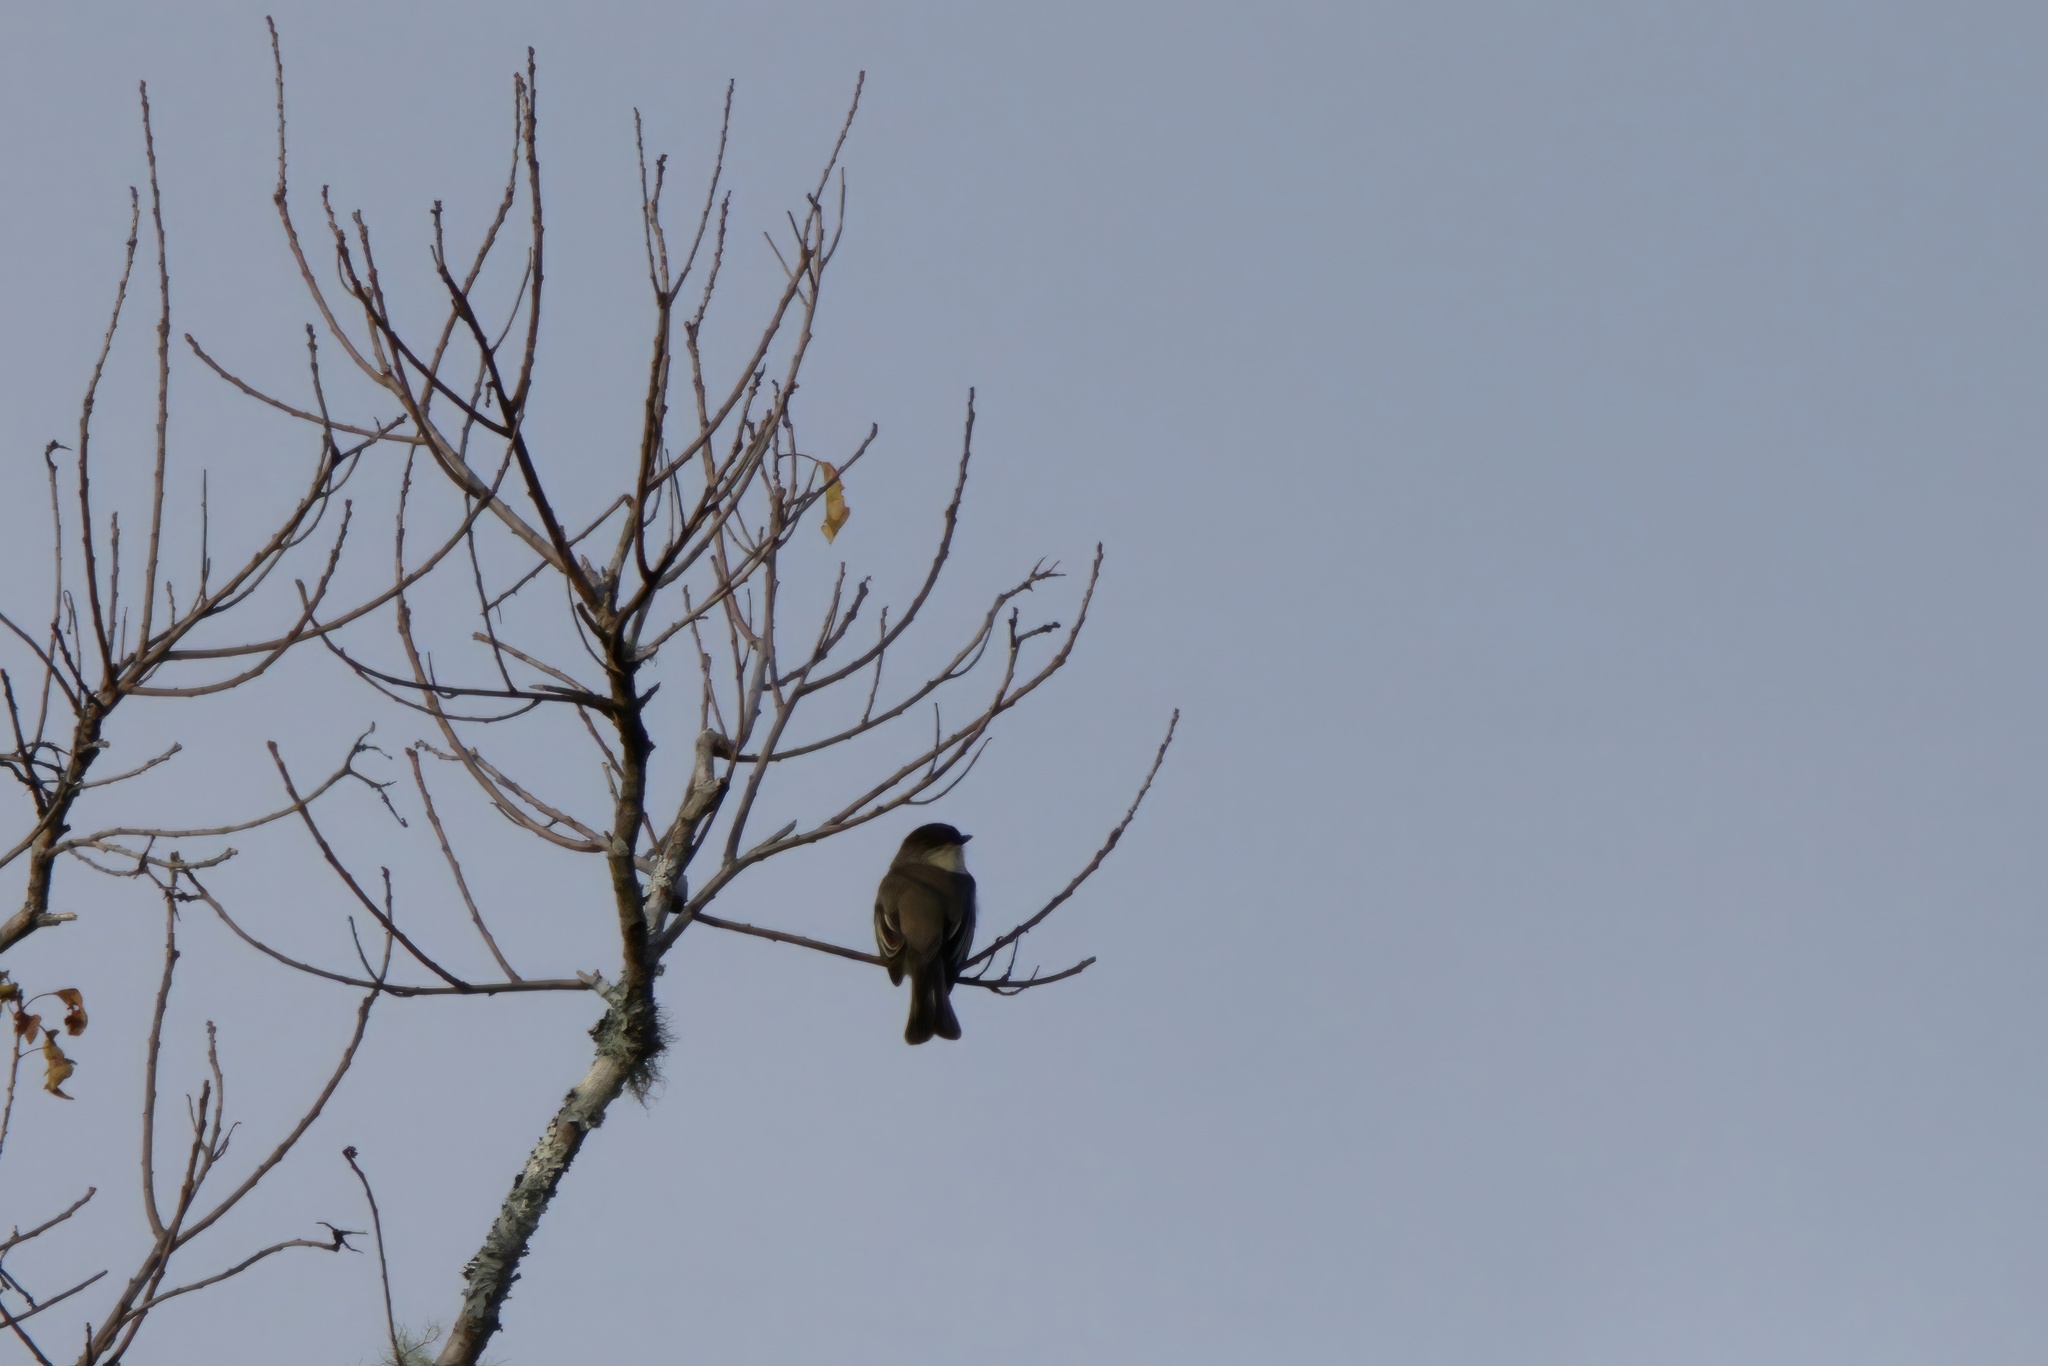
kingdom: Animalia
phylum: Chordata
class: Aves
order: Passeriformes
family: Tyrannidae
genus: Sayornis
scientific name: Sayornis phoebe
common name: Eastern phoebe
